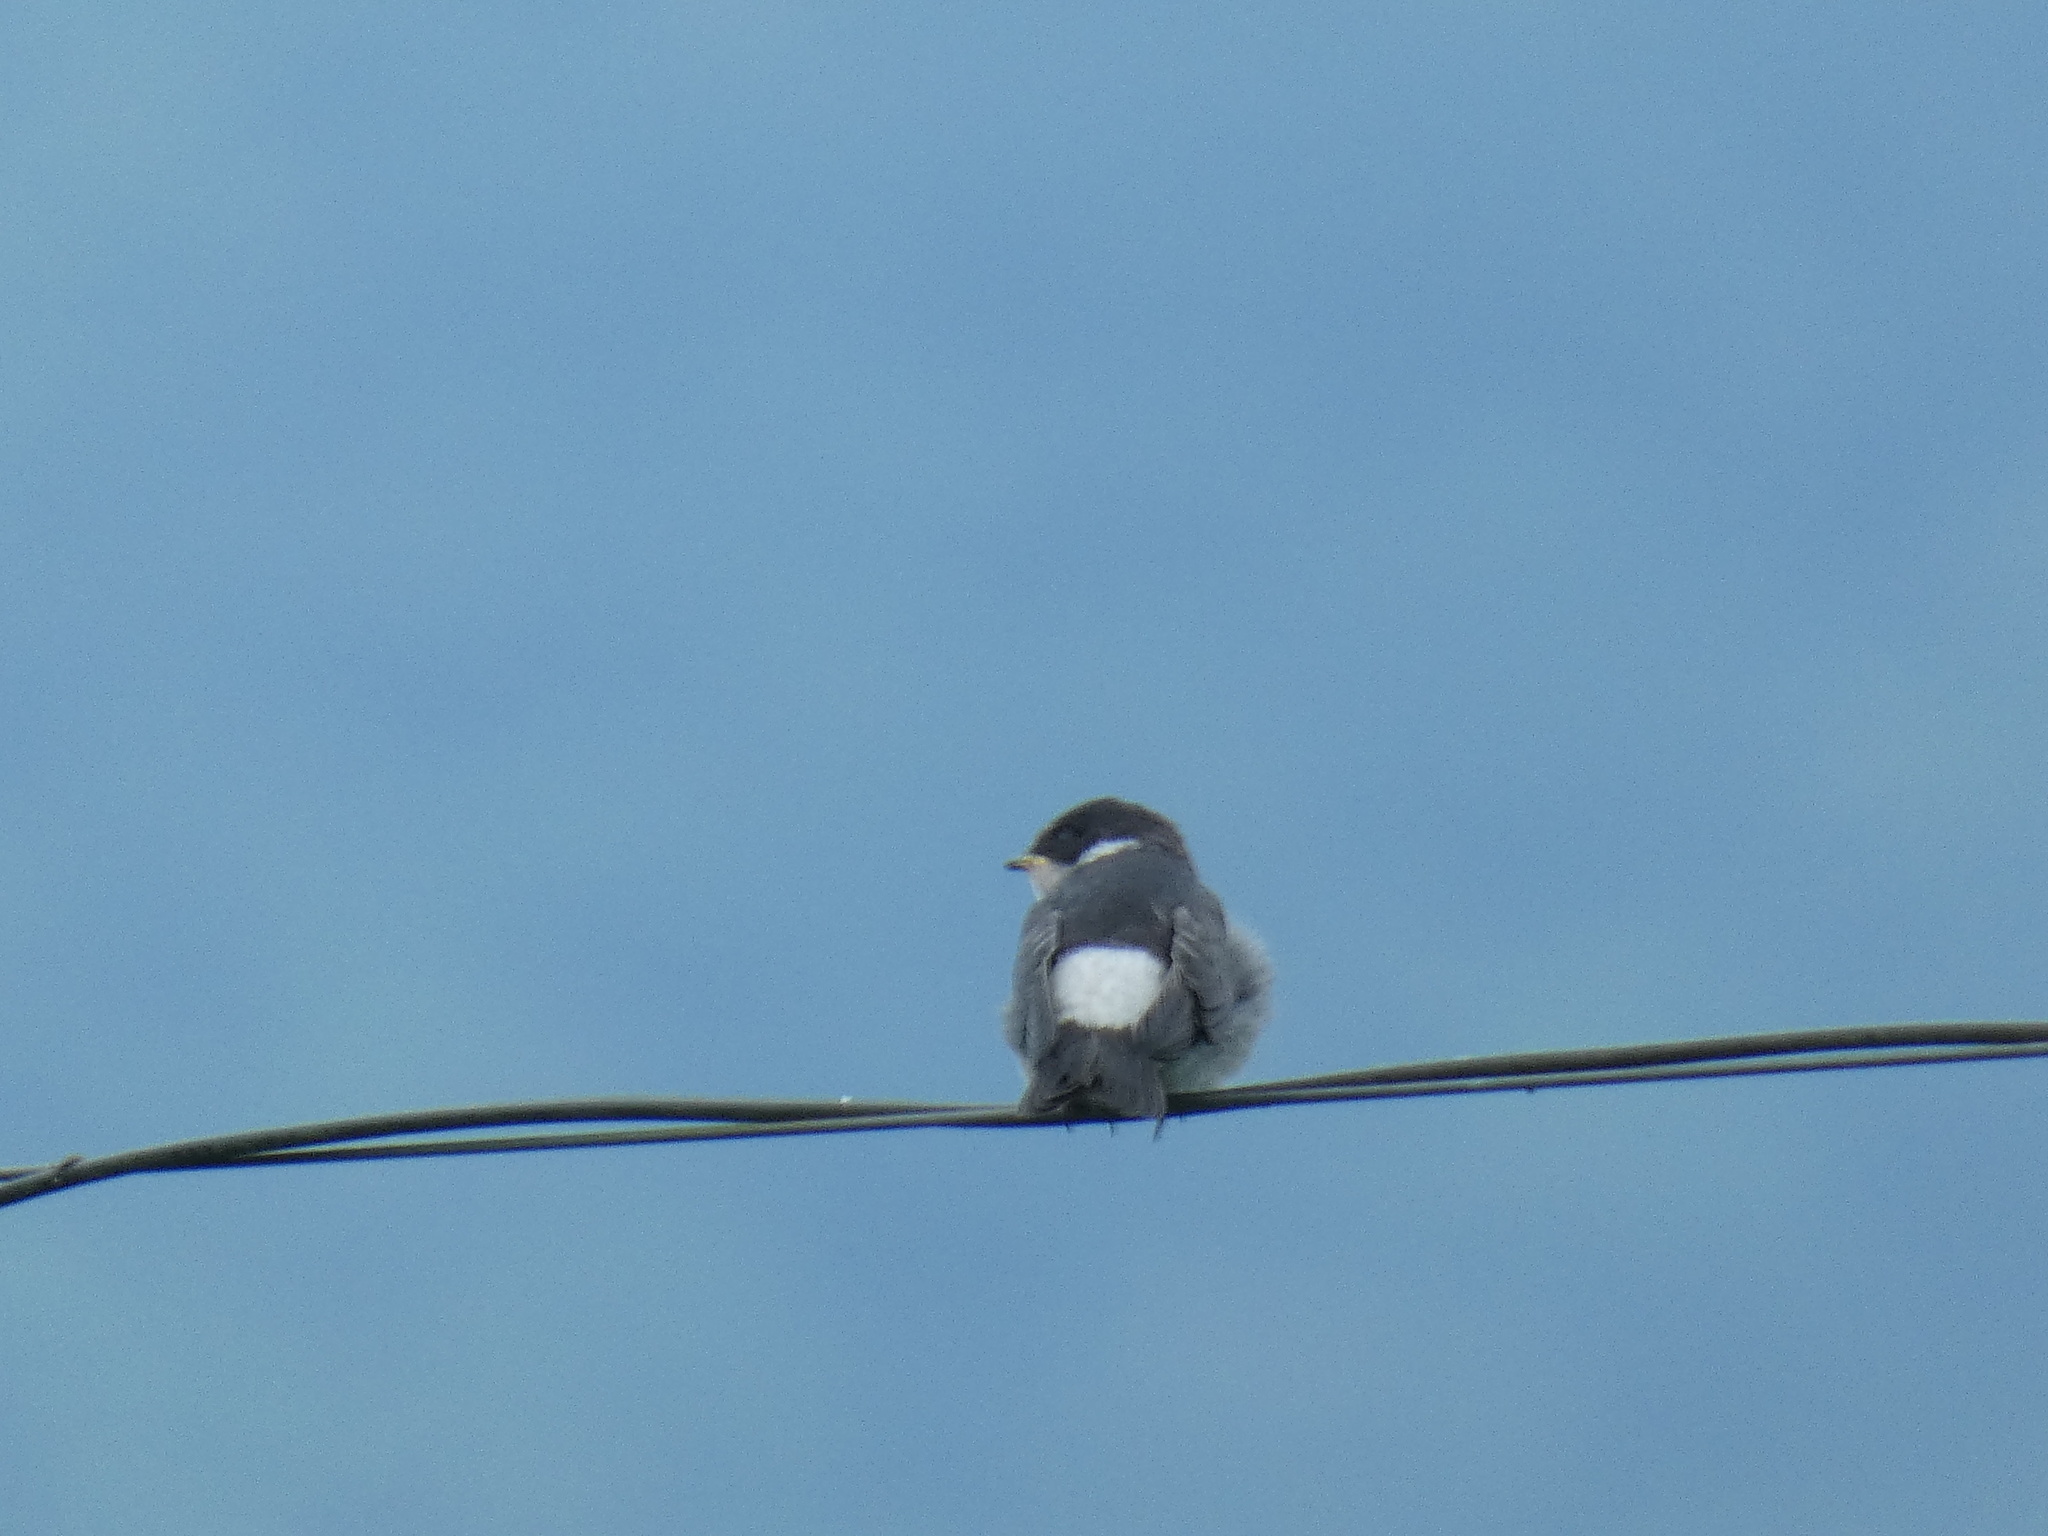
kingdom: Animalia
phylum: Chordata
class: Aves
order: Passeriformes
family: Hirundinidae
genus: Tachycineta
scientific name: Tachycineta leucorrhoa
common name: White-rumped swallow
